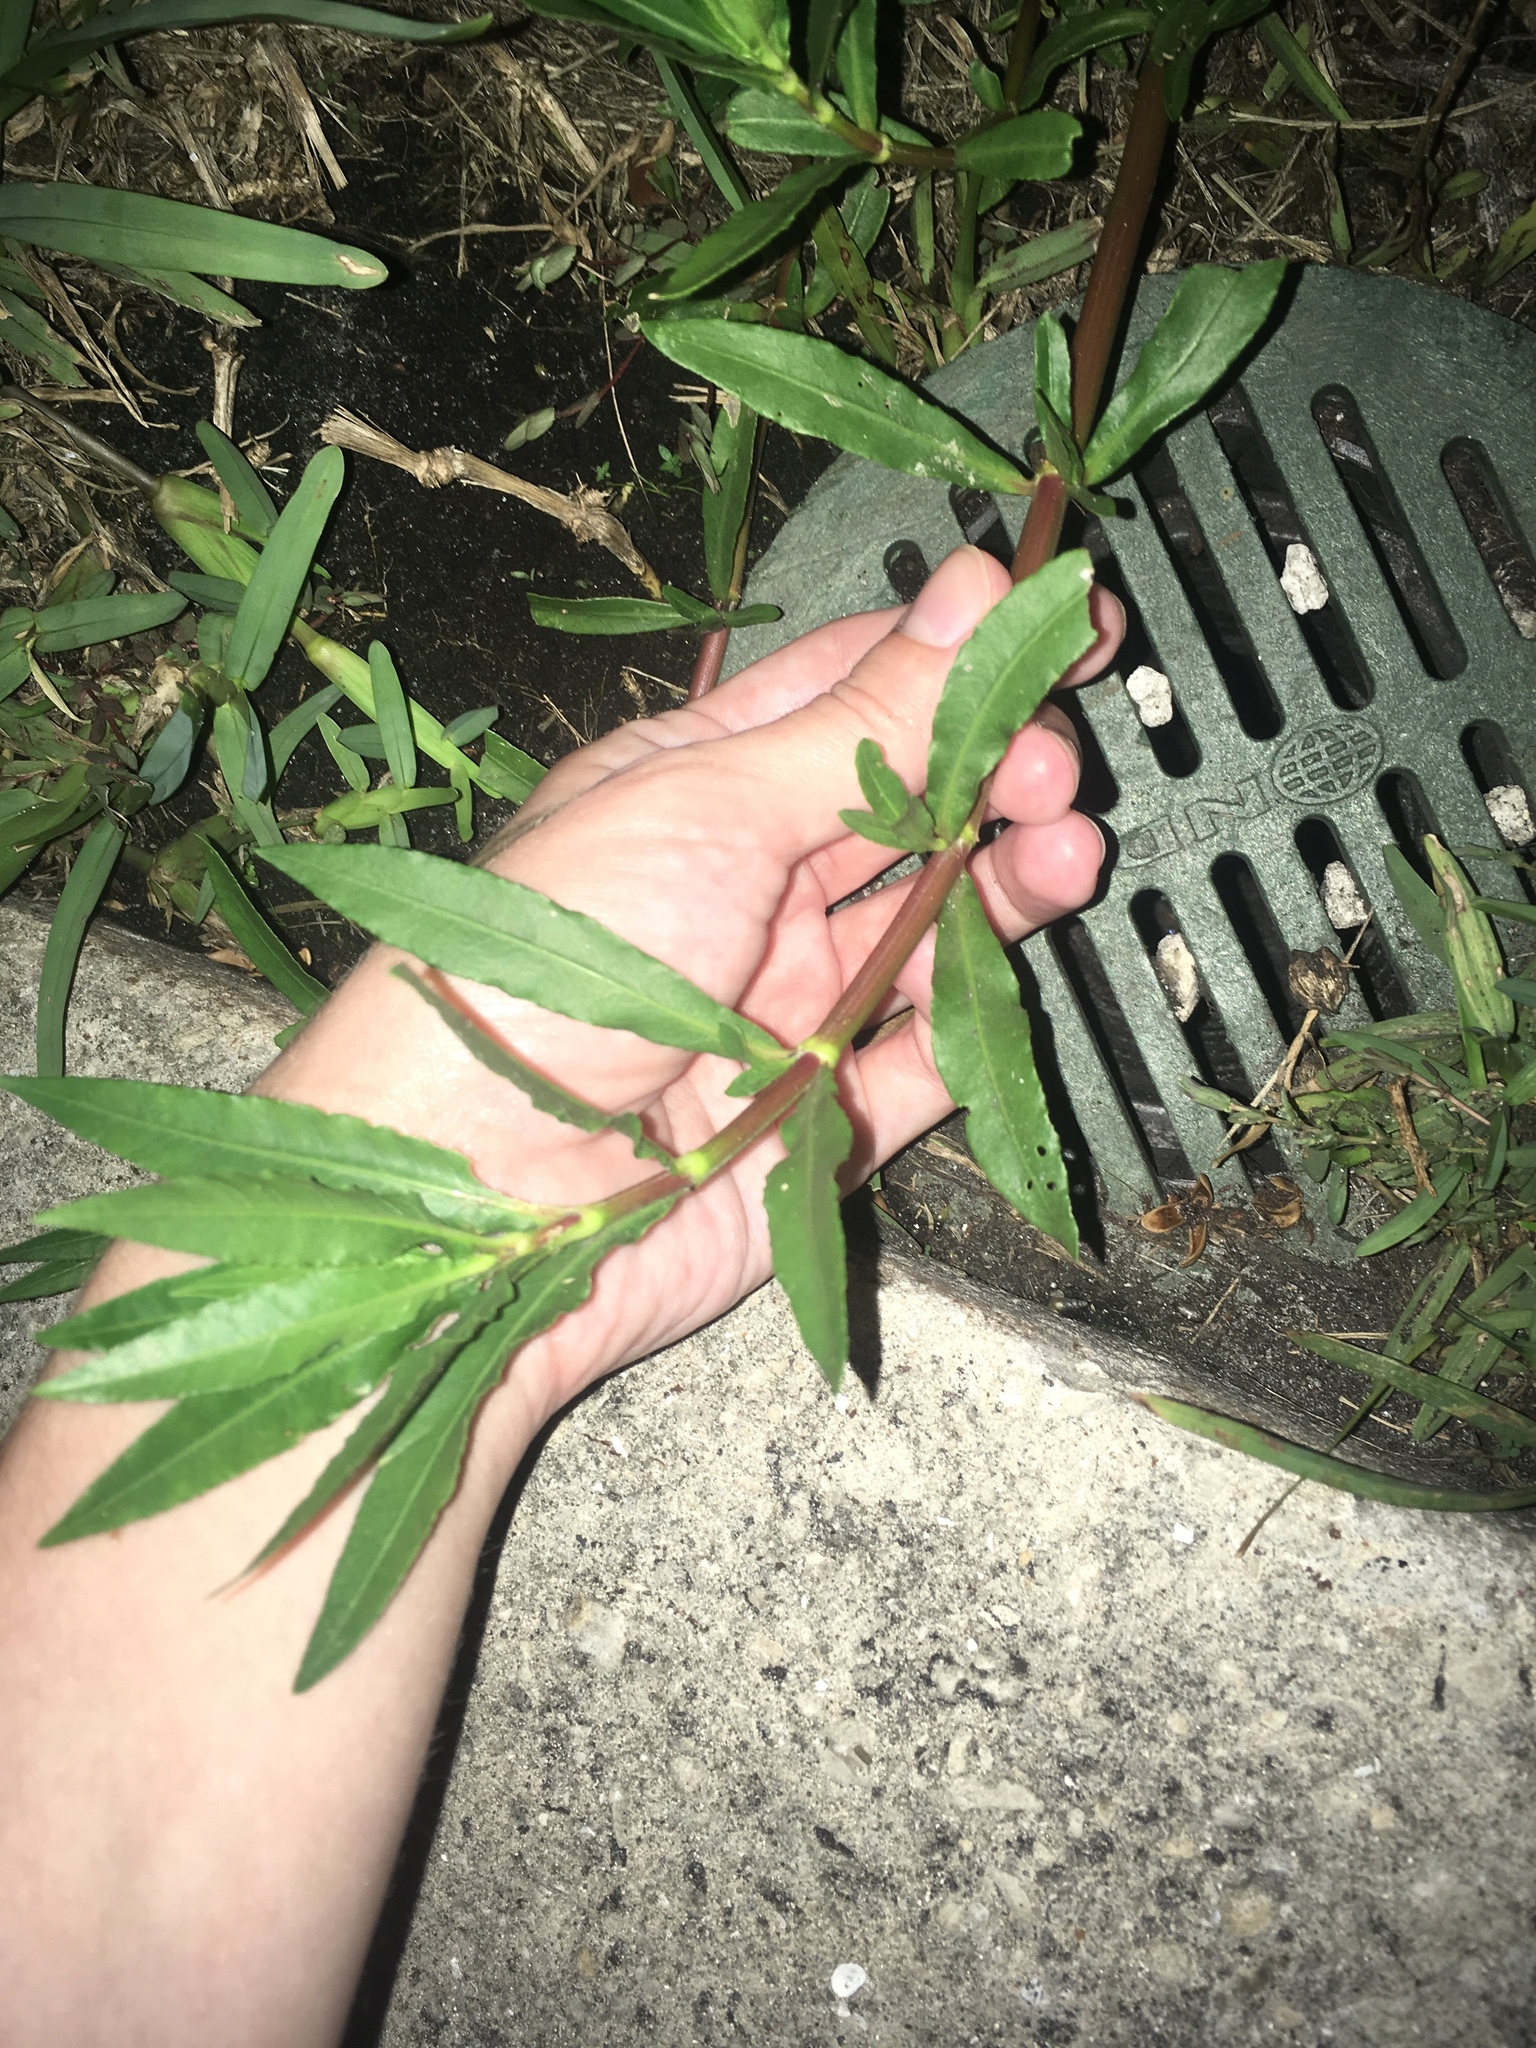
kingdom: Plantae
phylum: Tracheophyta
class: Magnoliopsida
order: Caryophyllales
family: Amaranthaceae
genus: Alternanthera
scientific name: Alternanthera philoxeroides
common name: Alligatorweed
